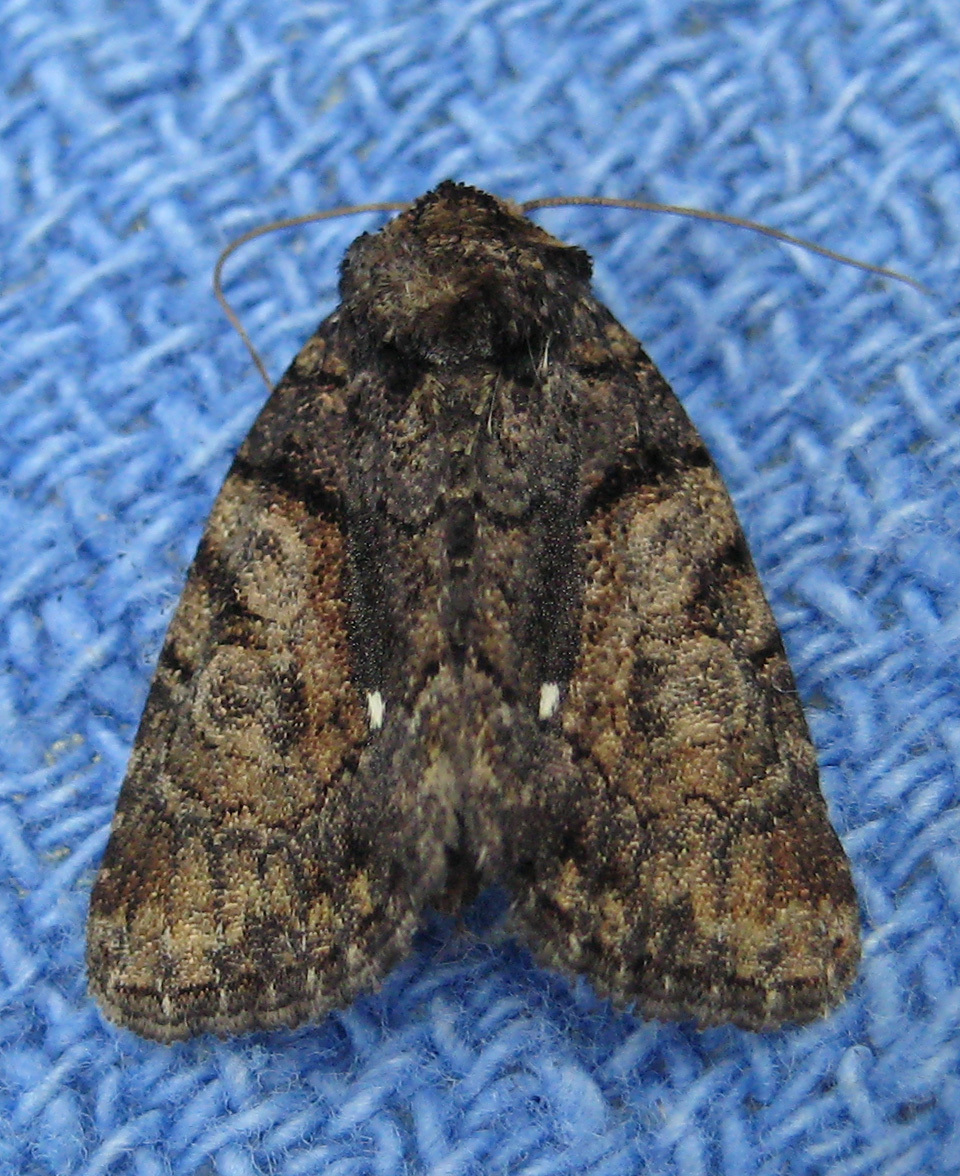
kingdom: Animalia
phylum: Arthropoda
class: Insecta
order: Lepidoptera
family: Noctuidae
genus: Chytonix
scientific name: Chytonix palliatricula
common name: Cloaked marvel
